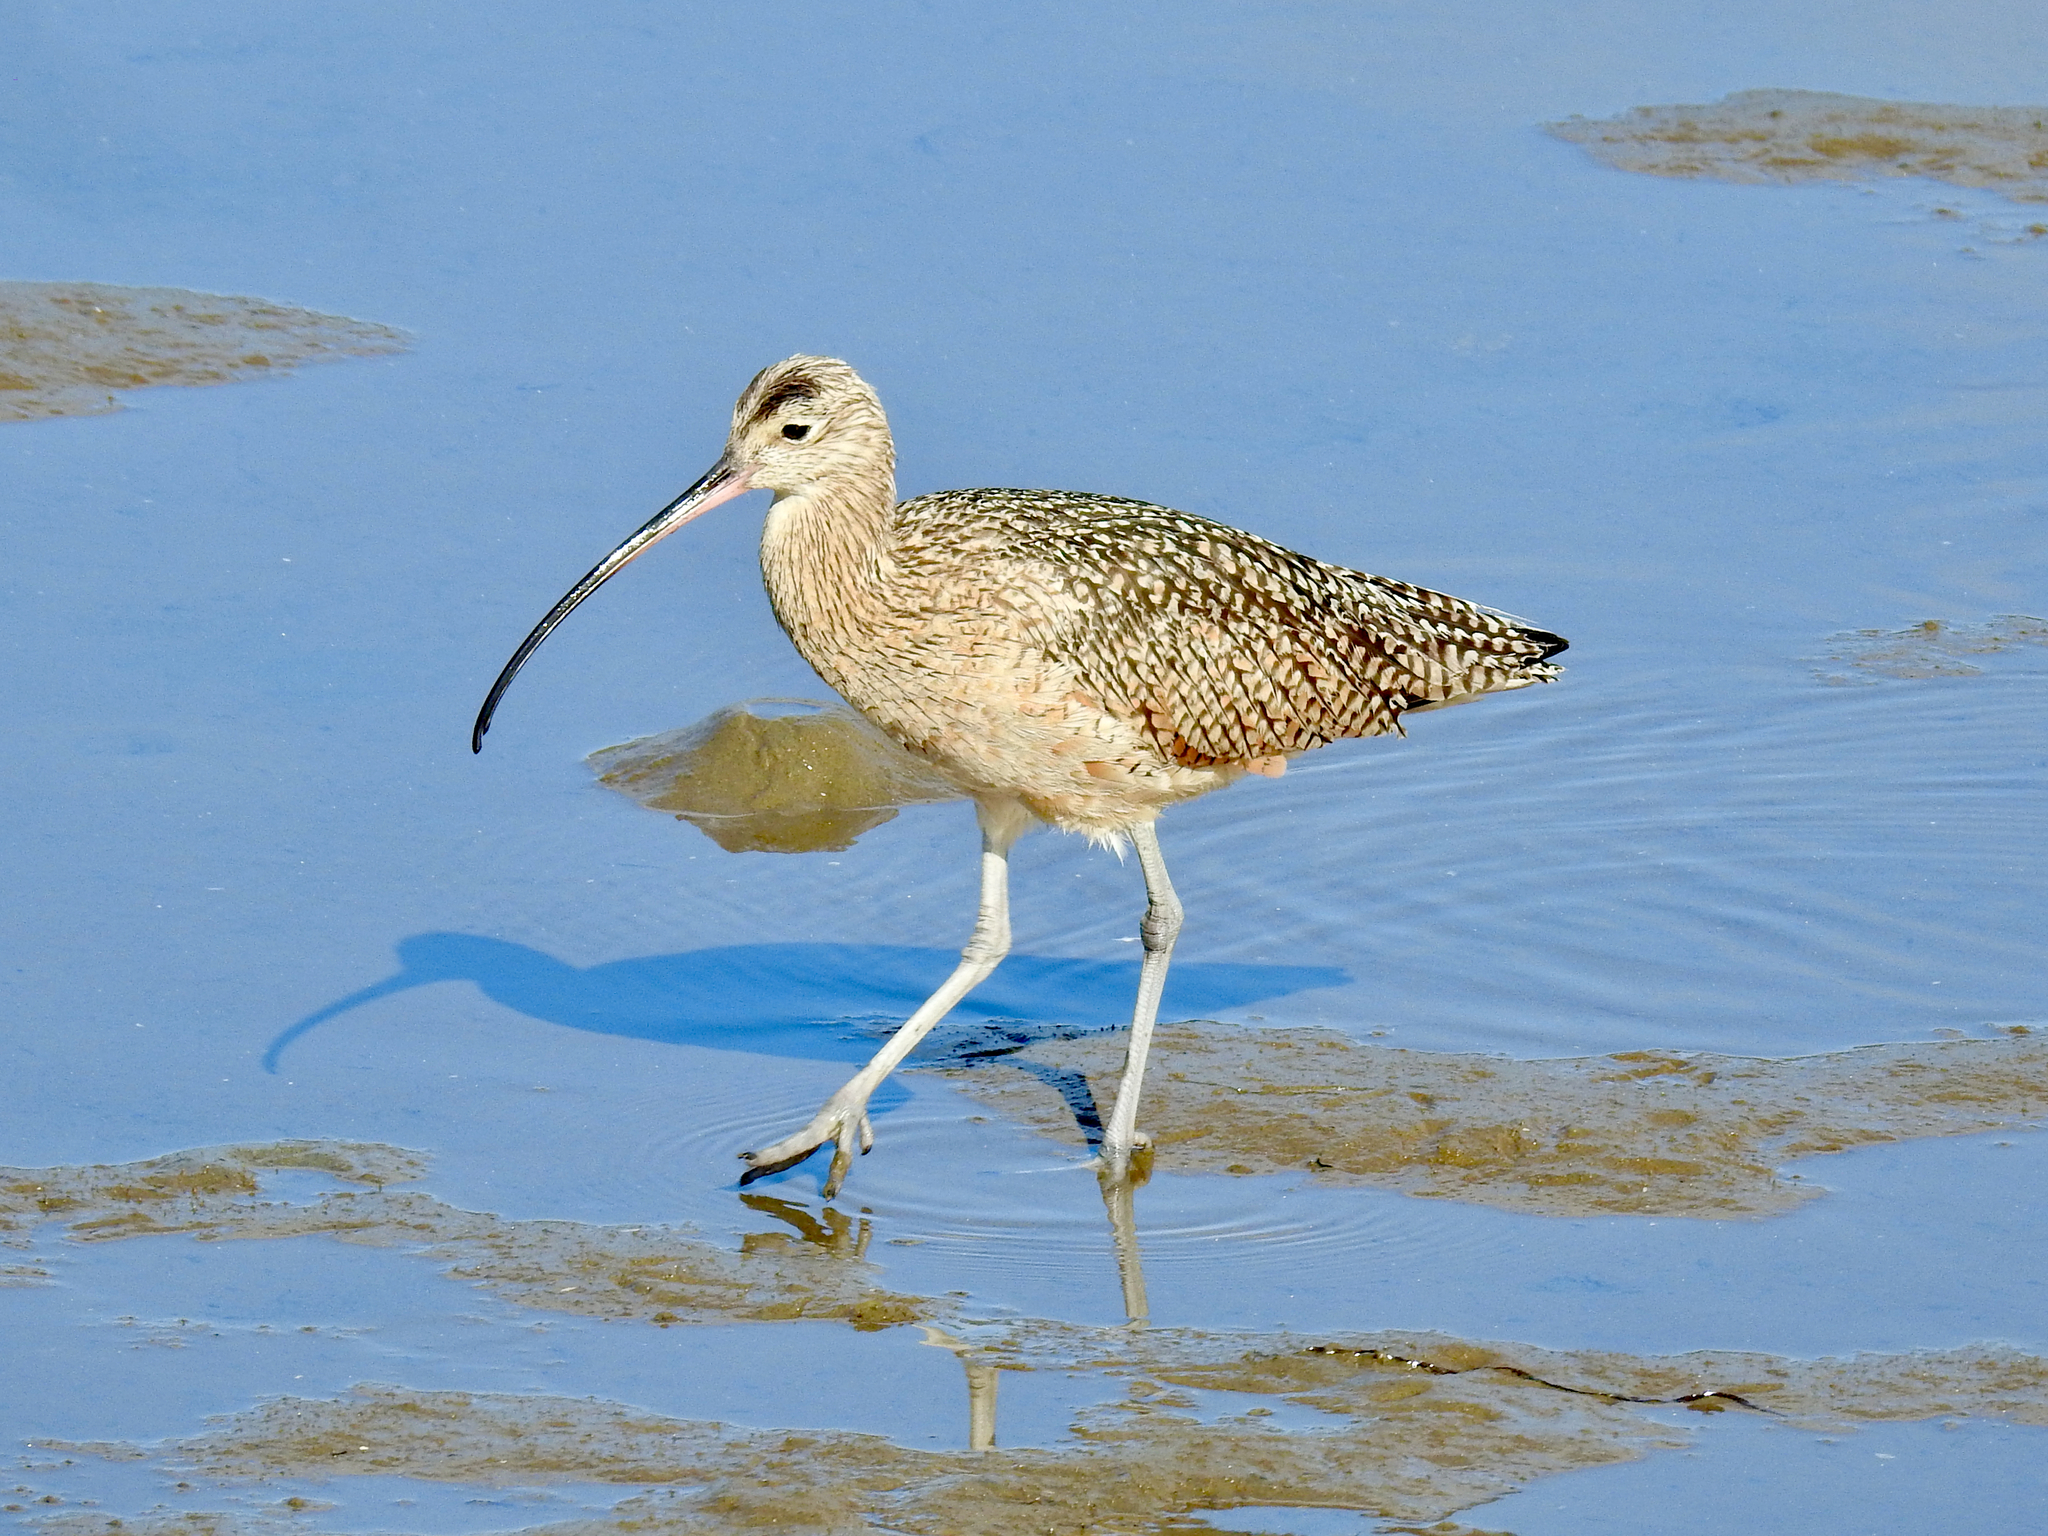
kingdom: Animalia
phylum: Chordata
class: Aves
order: Charadriiformes
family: Scolopacidae
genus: Numenius
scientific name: Numenius americanus
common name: Long-billed curlew
